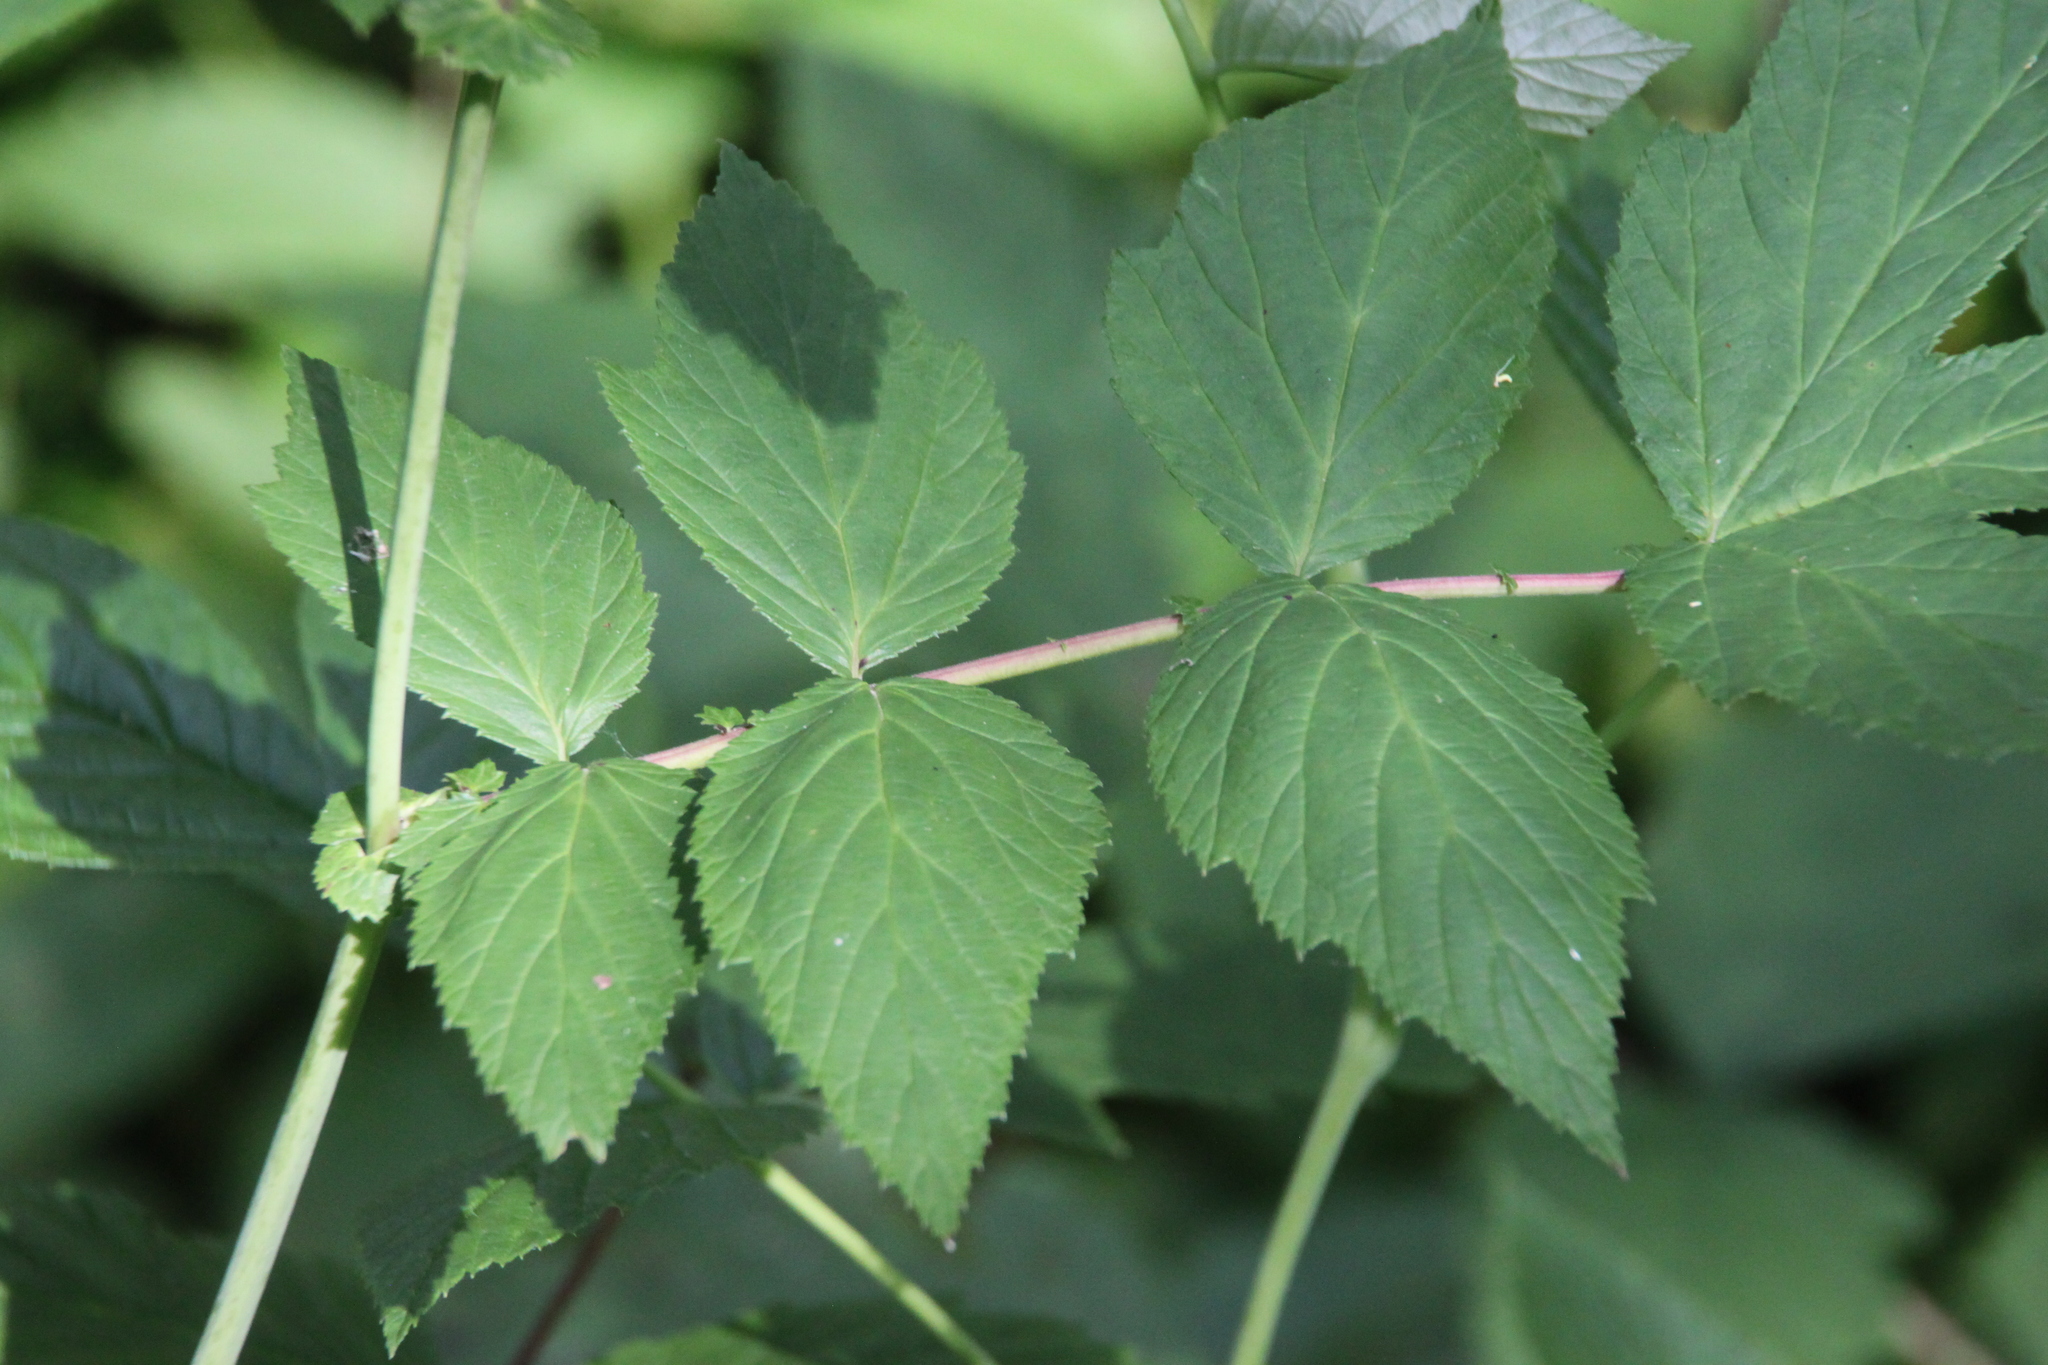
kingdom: Plantae
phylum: Tracheophyta
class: Magnoliopsida
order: Rosales
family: Rosaceae
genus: Filipendula
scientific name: Filipendula ulmaria
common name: Meadowsweet
